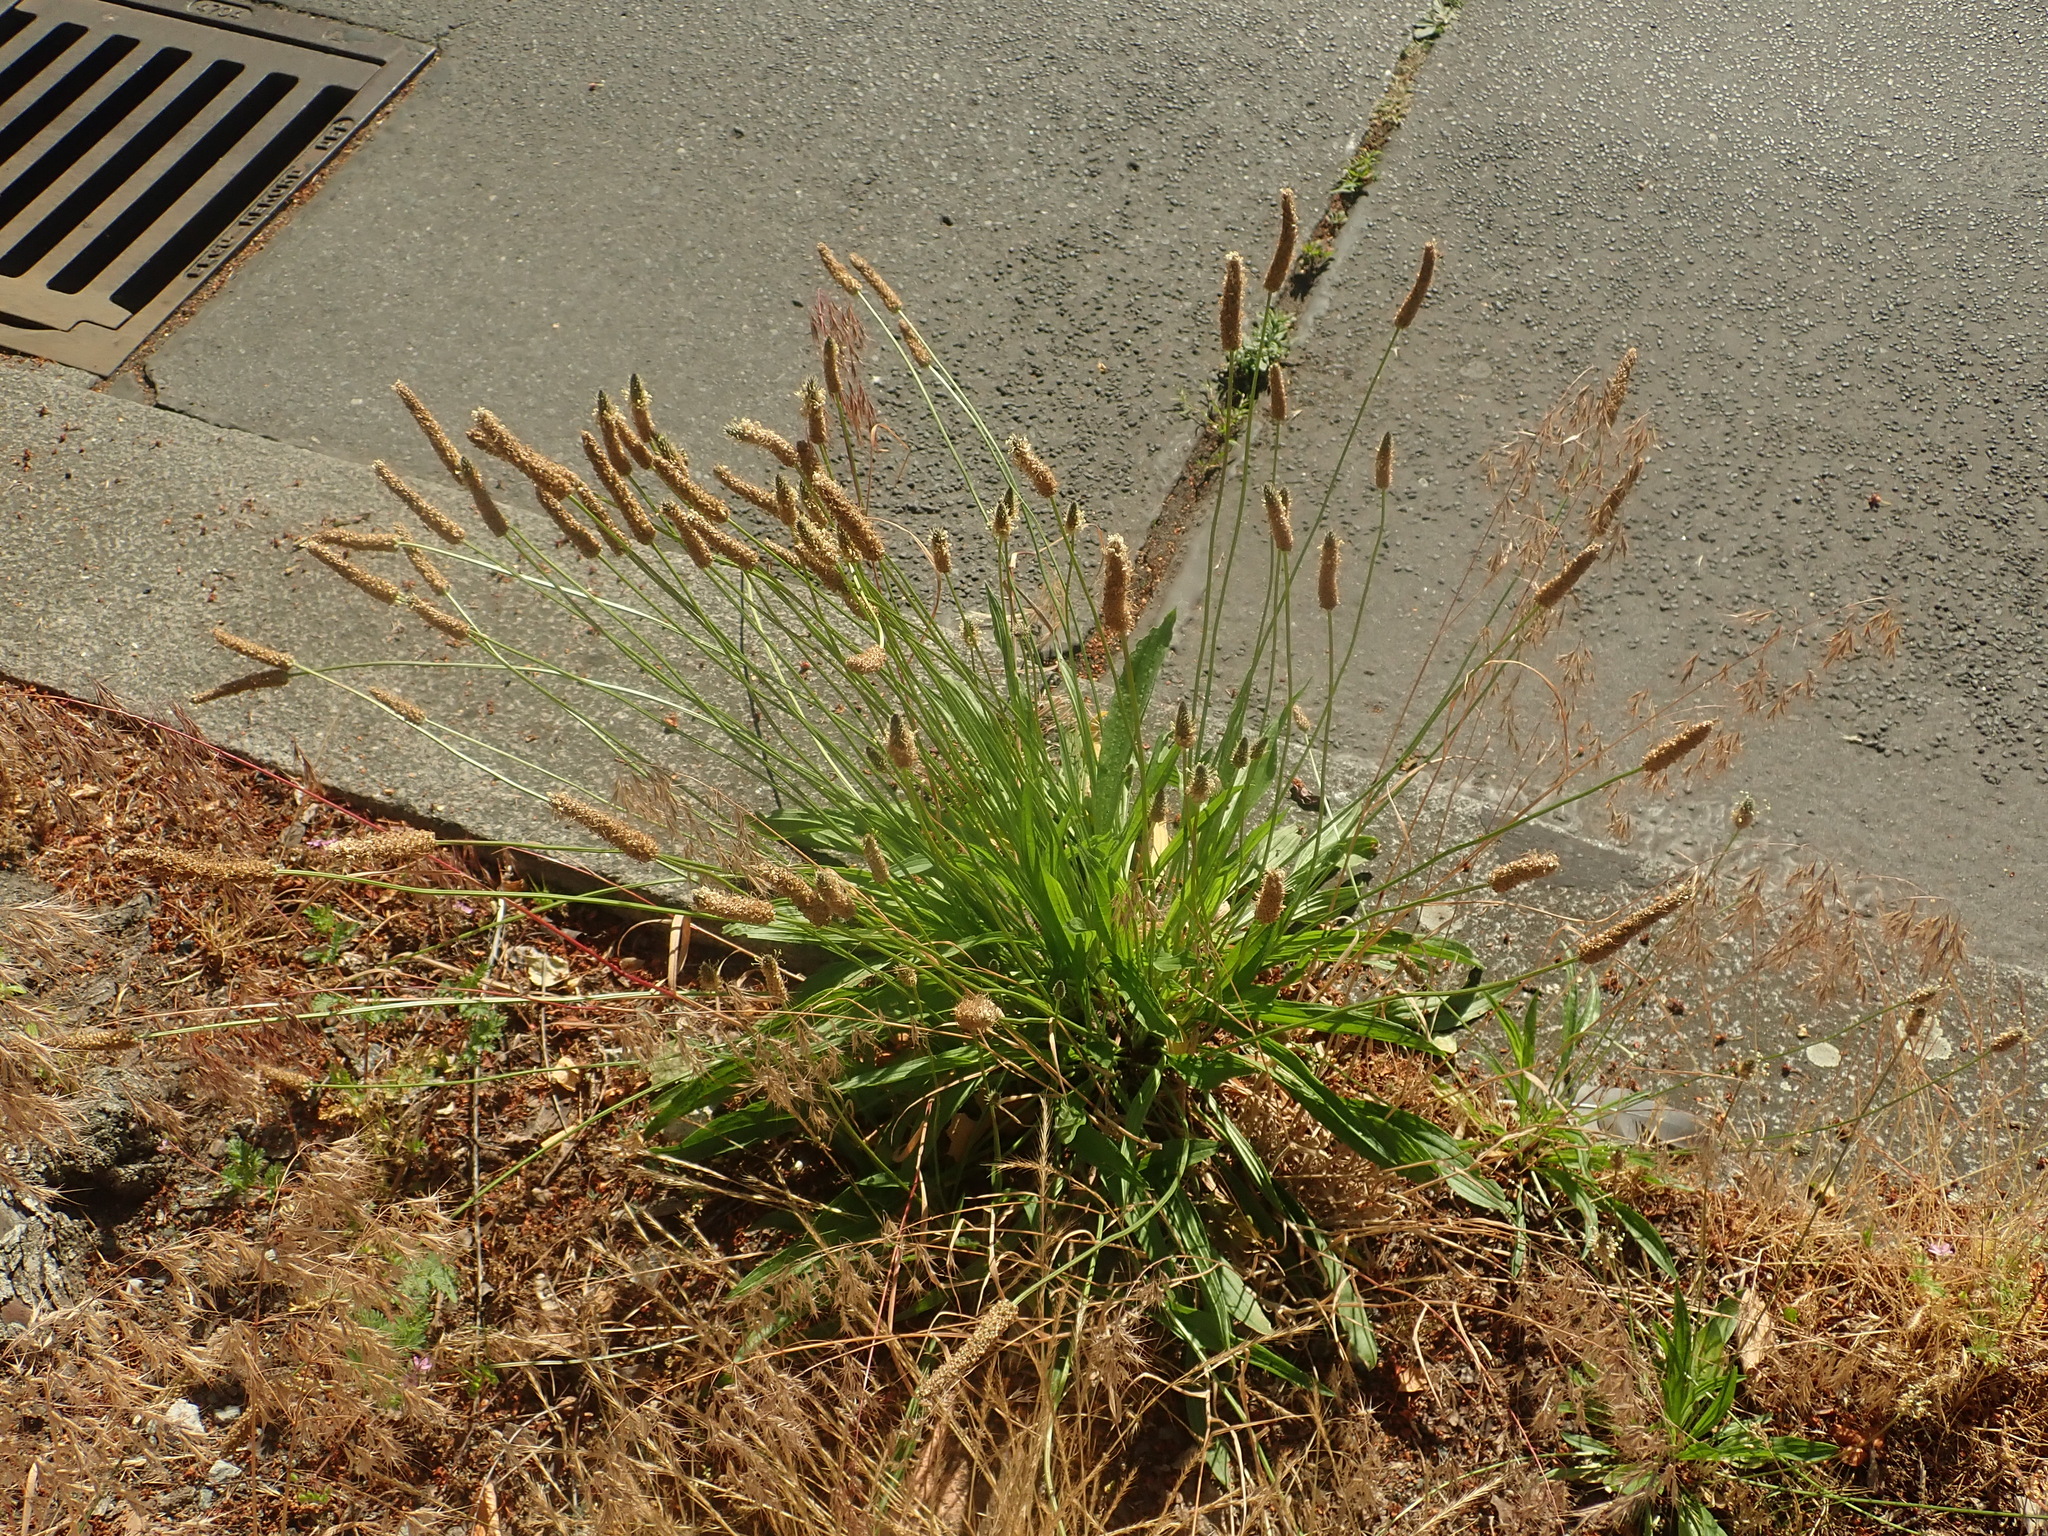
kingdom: Plantae
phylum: Tracheophyta
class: Magnoliopsida
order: Lamiales
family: Plantaginaceae
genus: Plantago
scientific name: Plantago lanceolata
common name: Ribwort plantain
